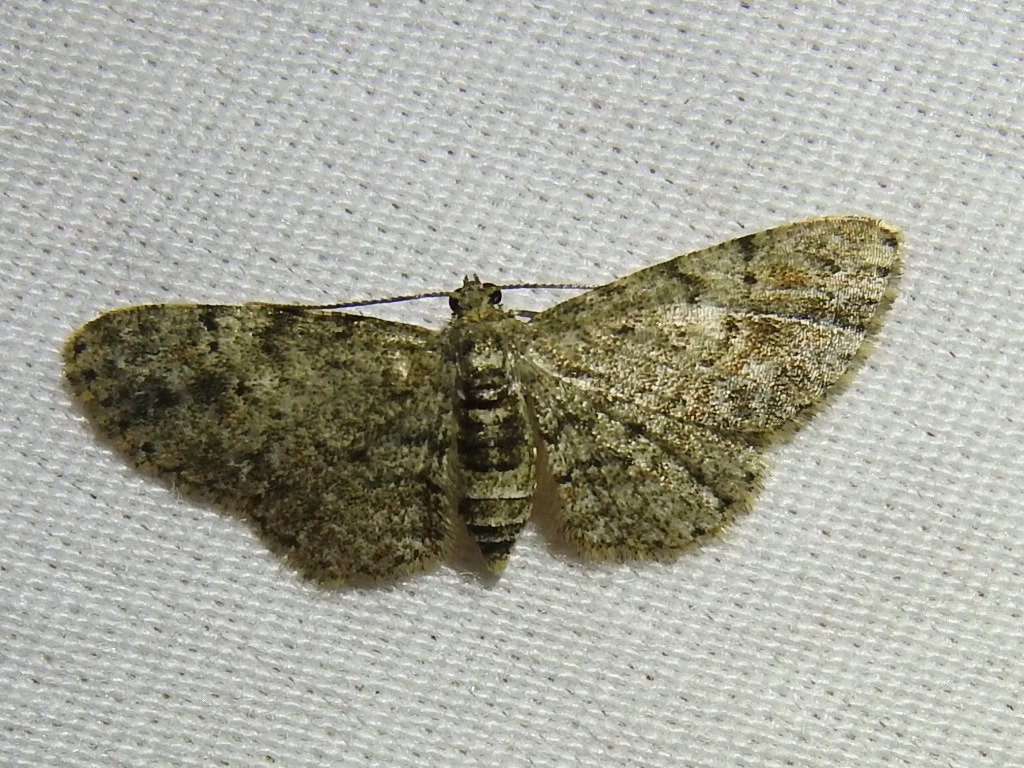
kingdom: Animalia
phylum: Arthropoda
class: Insecta
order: Lepidoptera
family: Geometridae
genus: Glenoides
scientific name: Glenoides texanaria
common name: Texas gray
